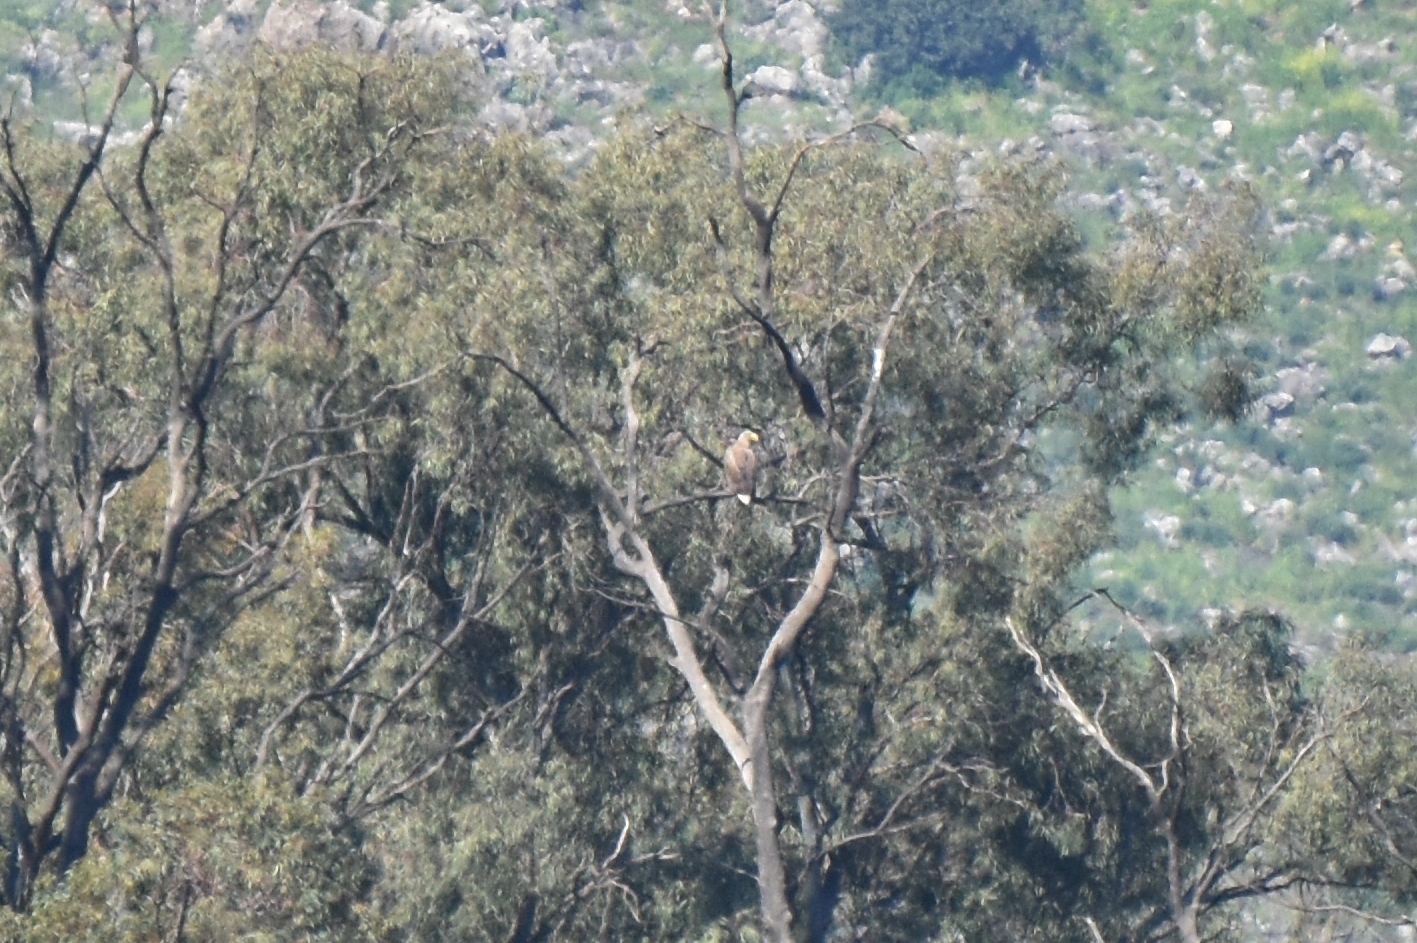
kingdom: Animalia
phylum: Chordata
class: Aves
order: Accipitriformes
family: Accipitridae
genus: Haliaeetus
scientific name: Haliaeetus albicilla
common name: White-tailed eagle
